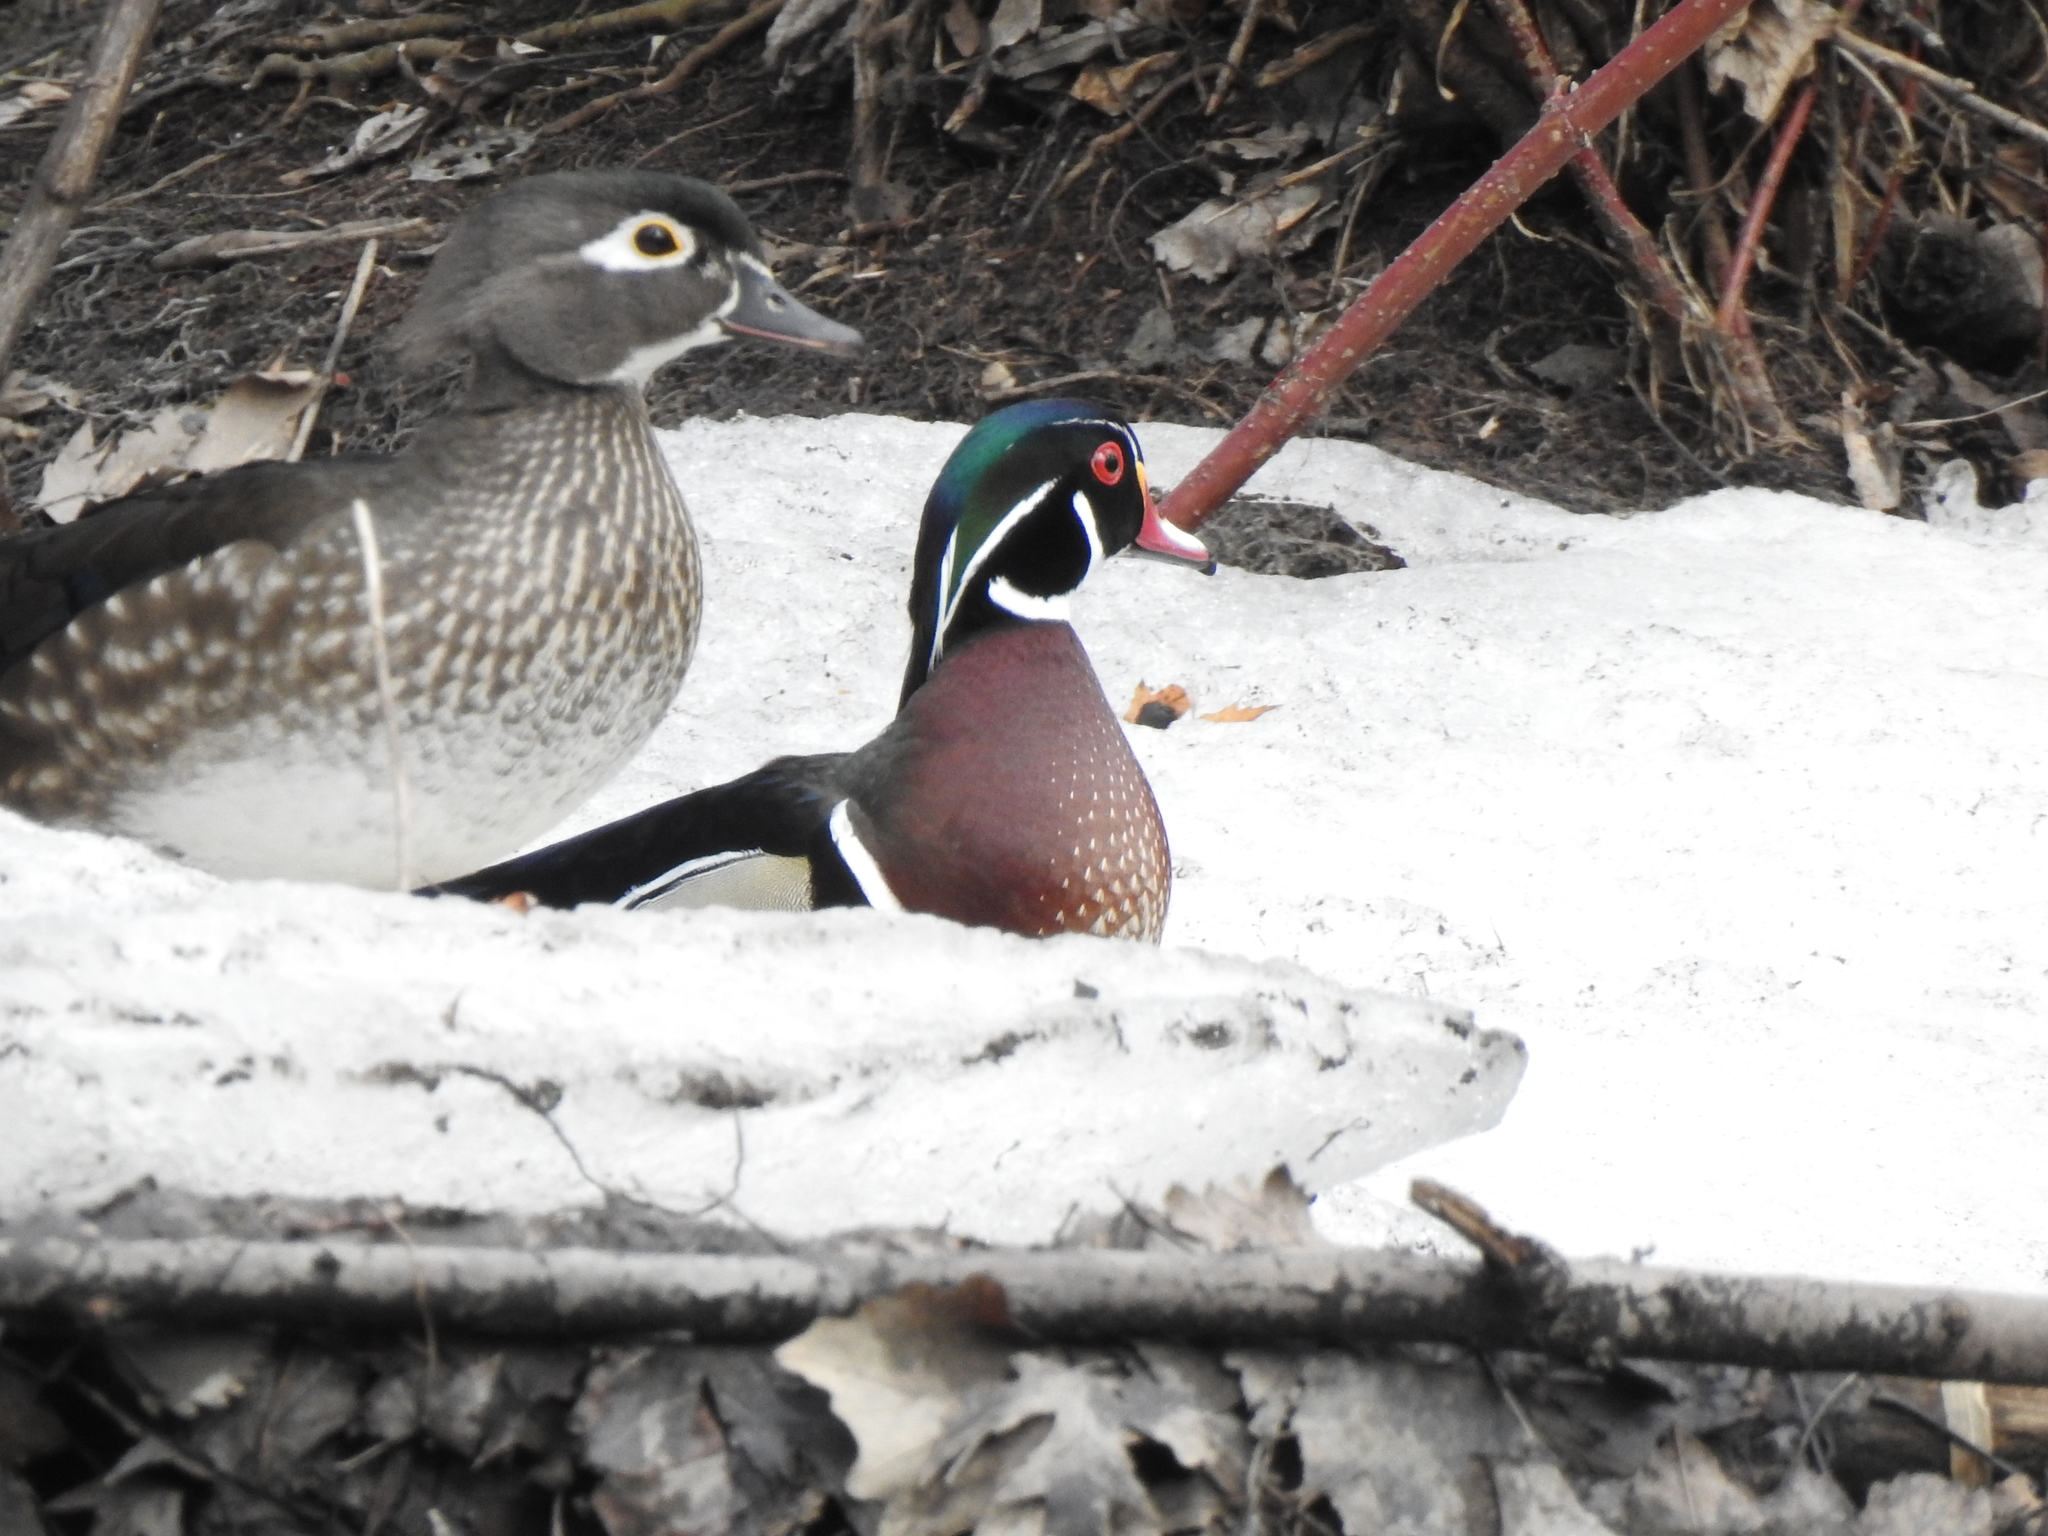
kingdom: Animalia
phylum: Chordata
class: Aves
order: Anseriformes
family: Anatidae
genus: Aix
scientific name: Aix sponsa
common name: Wood duck
